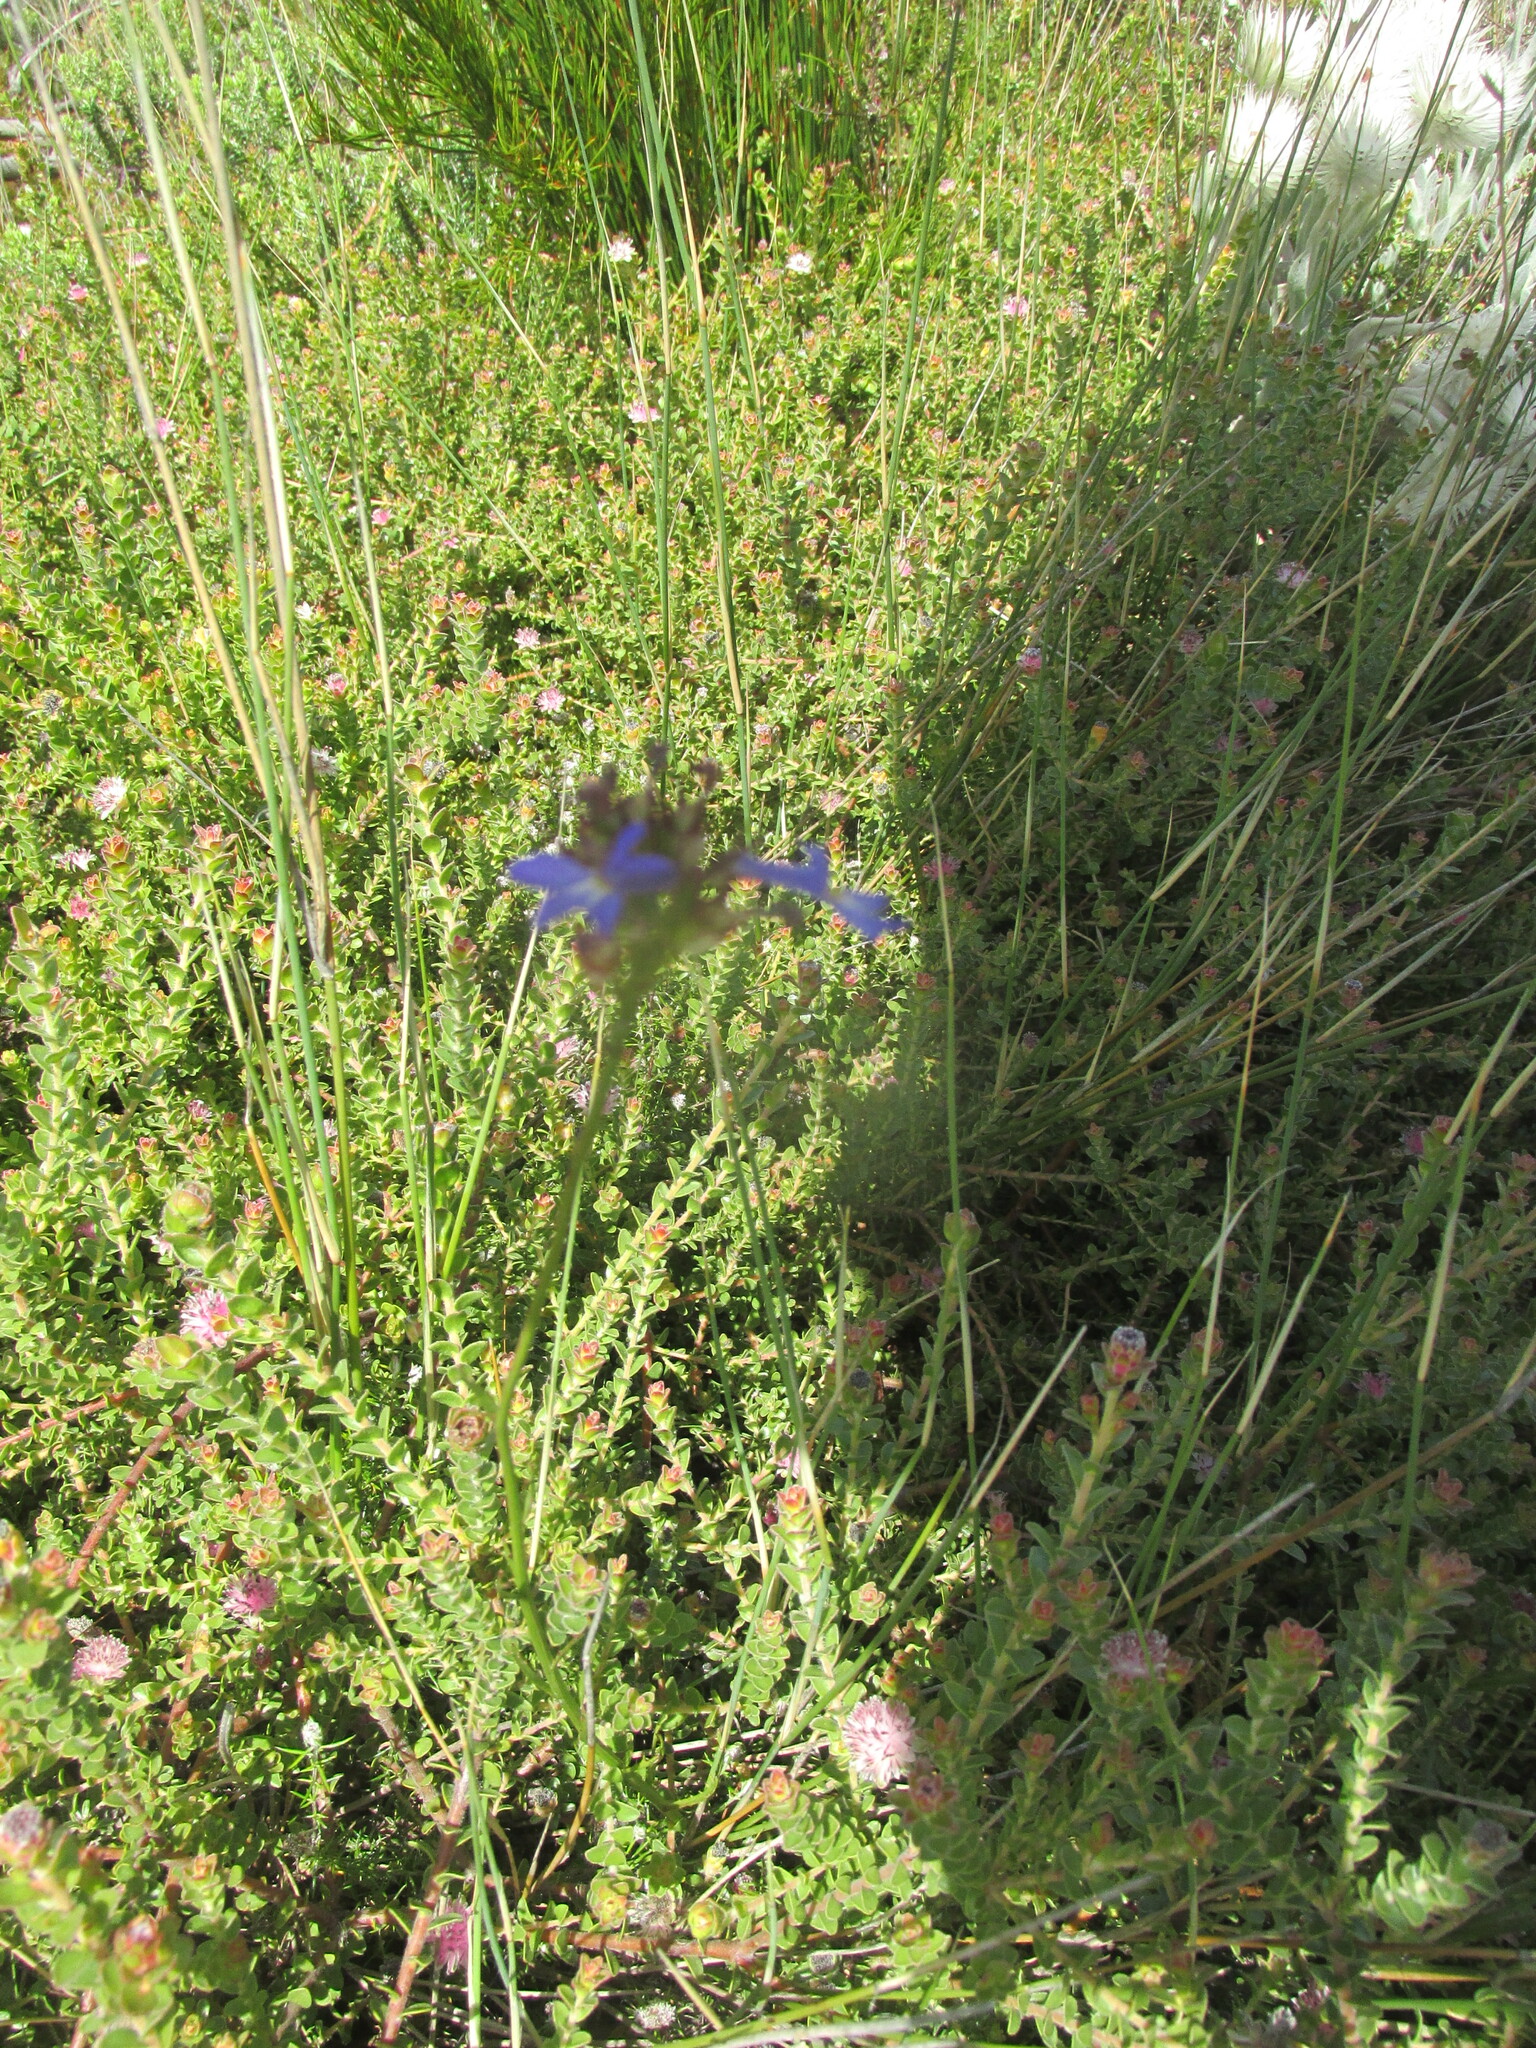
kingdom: Plantae
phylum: Tracheophyta
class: Magnoliopsida
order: Asterales
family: Campanulaceae
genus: Lobelia
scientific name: Lobelia comosa
